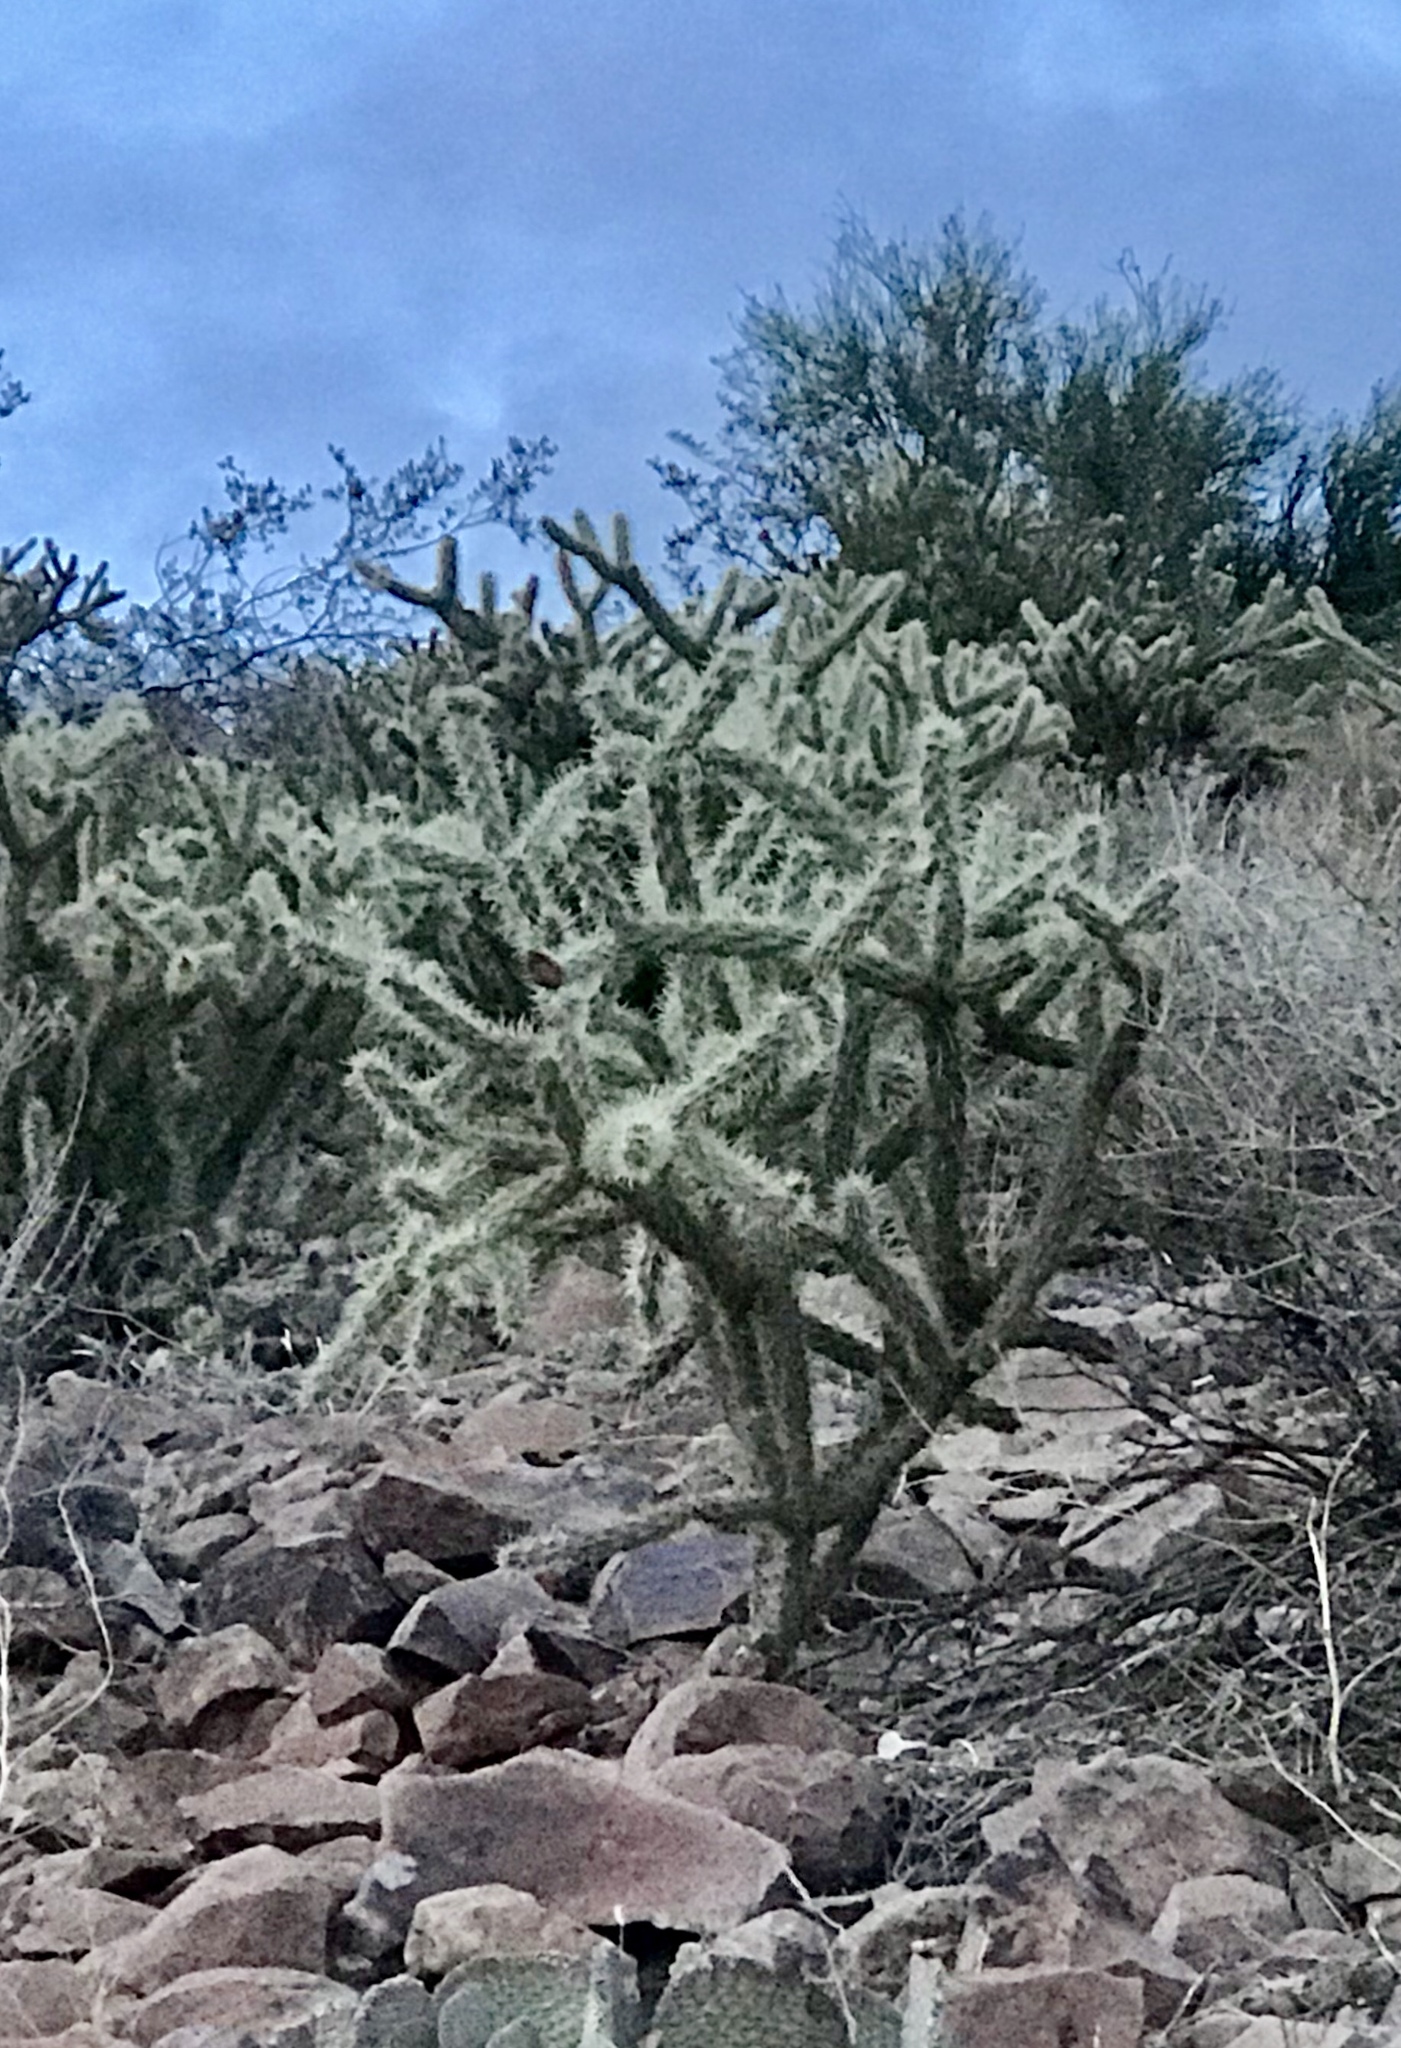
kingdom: Plantae
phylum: Tracheophyta
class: Magnoliopsida
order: Caryophyllales
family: Cactaceae
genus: Cylindropuntia
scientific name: Cylindropuntia acanthocarpa
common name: Buckhorn cholla
